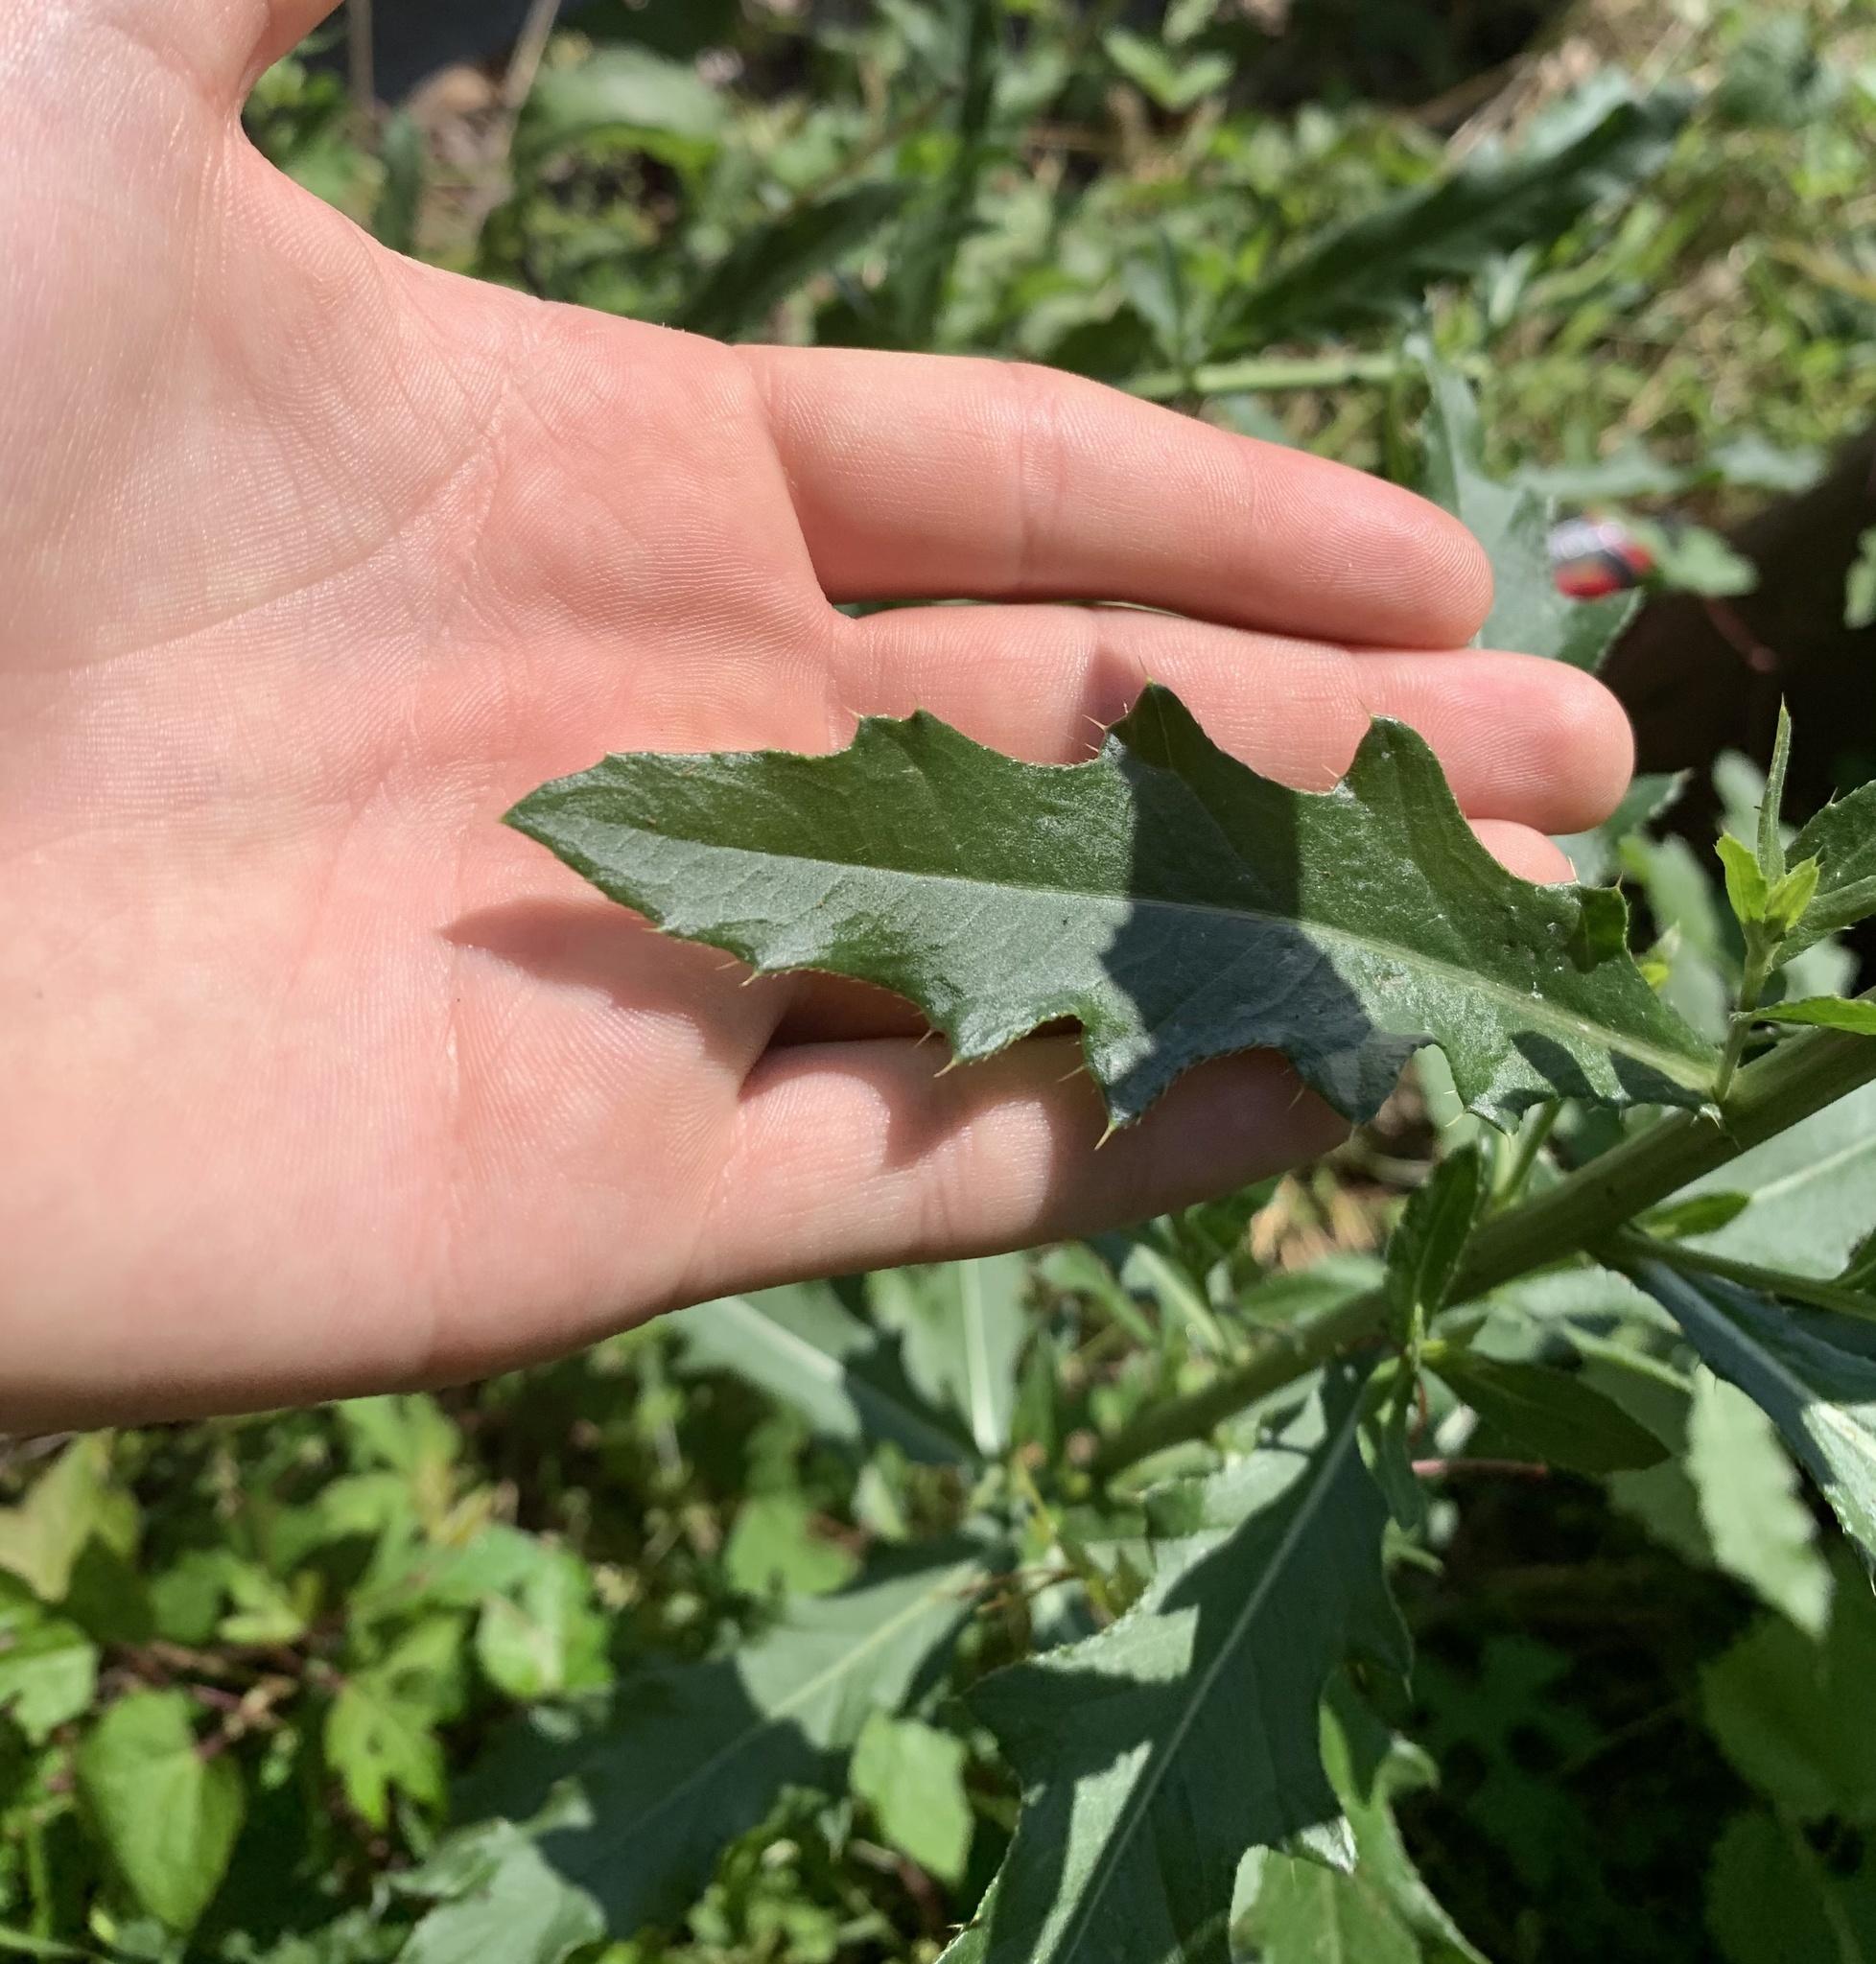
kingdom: Plantae
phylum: Tracheophyta
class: Magnoliopsida
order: Asterales
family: Asteraceae
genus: Cirsium
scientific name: Cirsium arvense
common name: Creeping thistle
